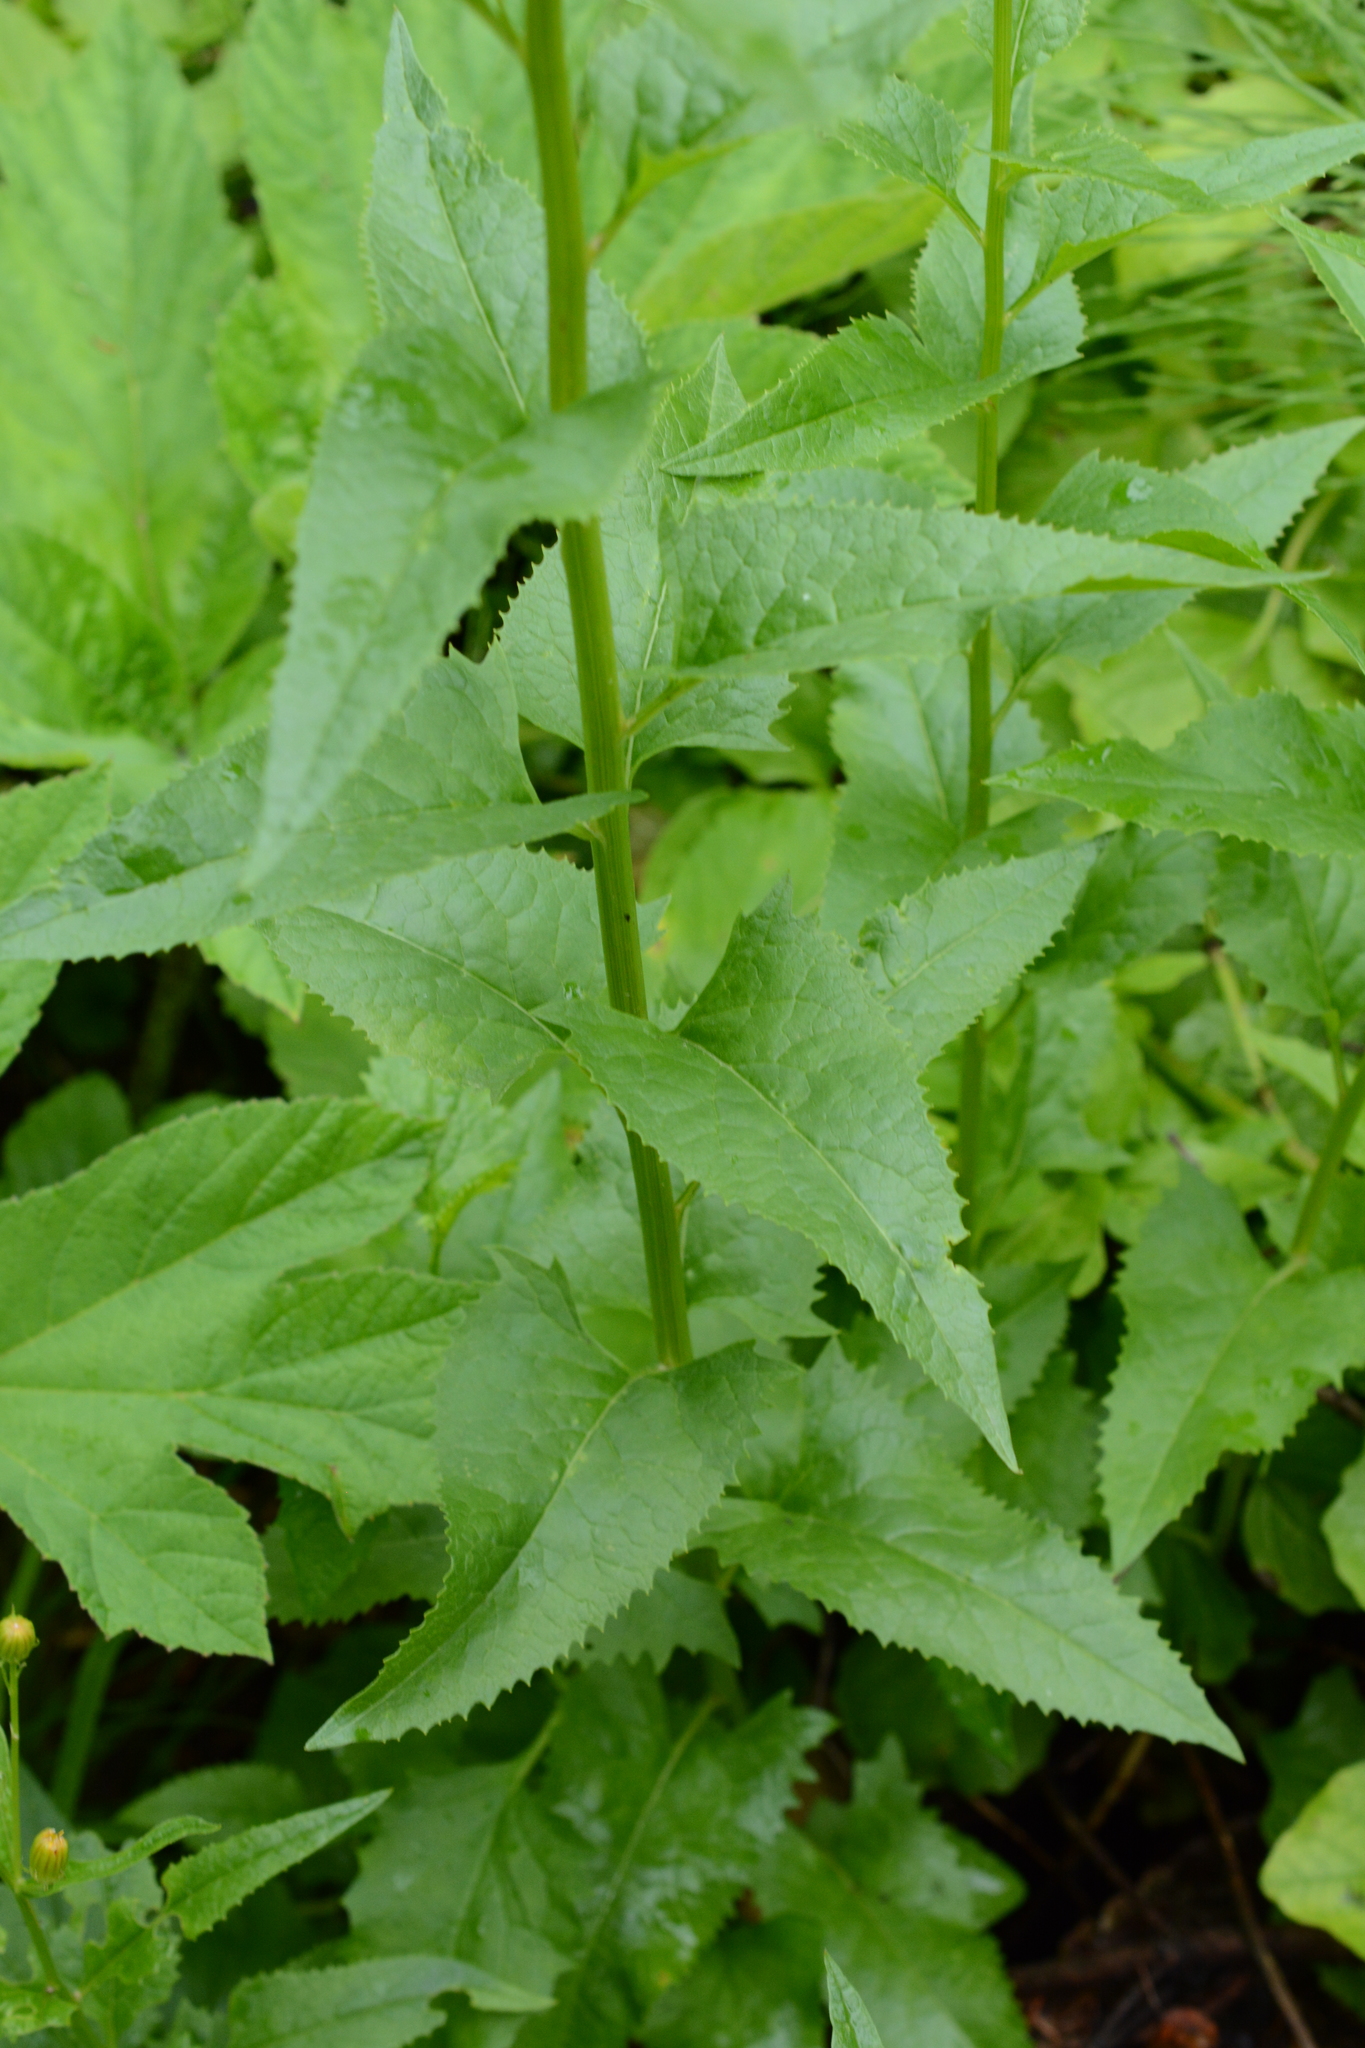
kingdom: Plantae
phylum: Tracheophyta
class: Magnoliopsida
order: Asterales
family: Asteraceae
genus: Senecio
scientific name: Senecio triangularis
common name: Arrowleaf butterweed
